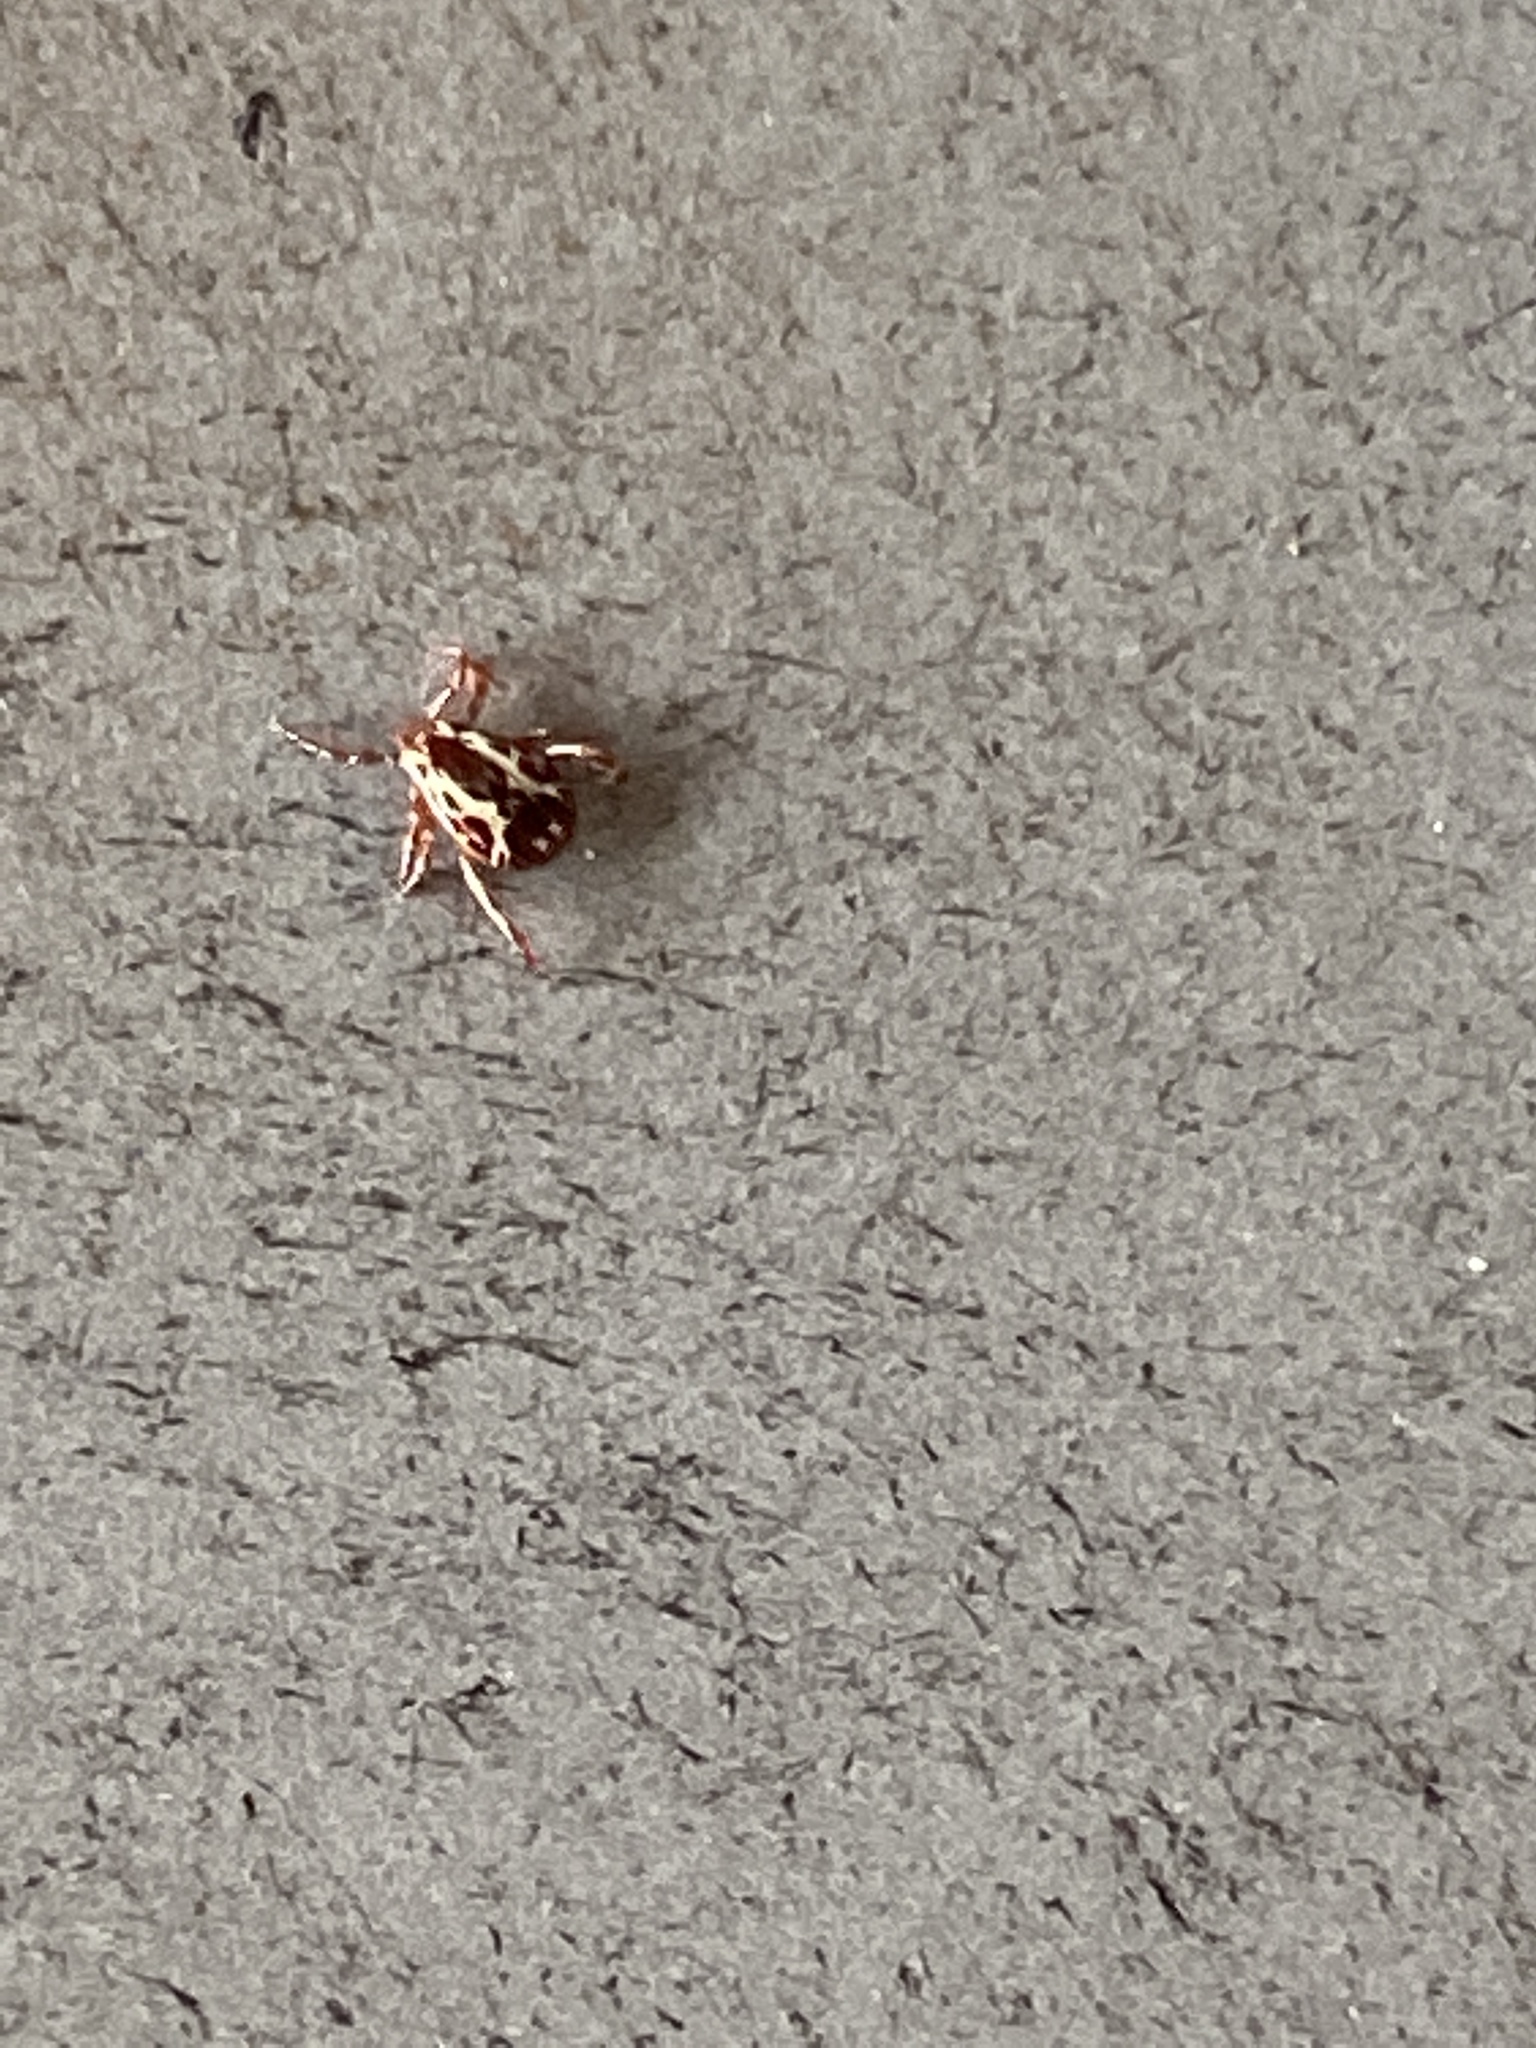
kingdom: Animalia
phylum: Arthropoda
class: Arachnida
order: Ixodida
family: Ixodidae
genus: Dermacentor
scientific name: Dermacentor variabilis
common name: American dog tick
